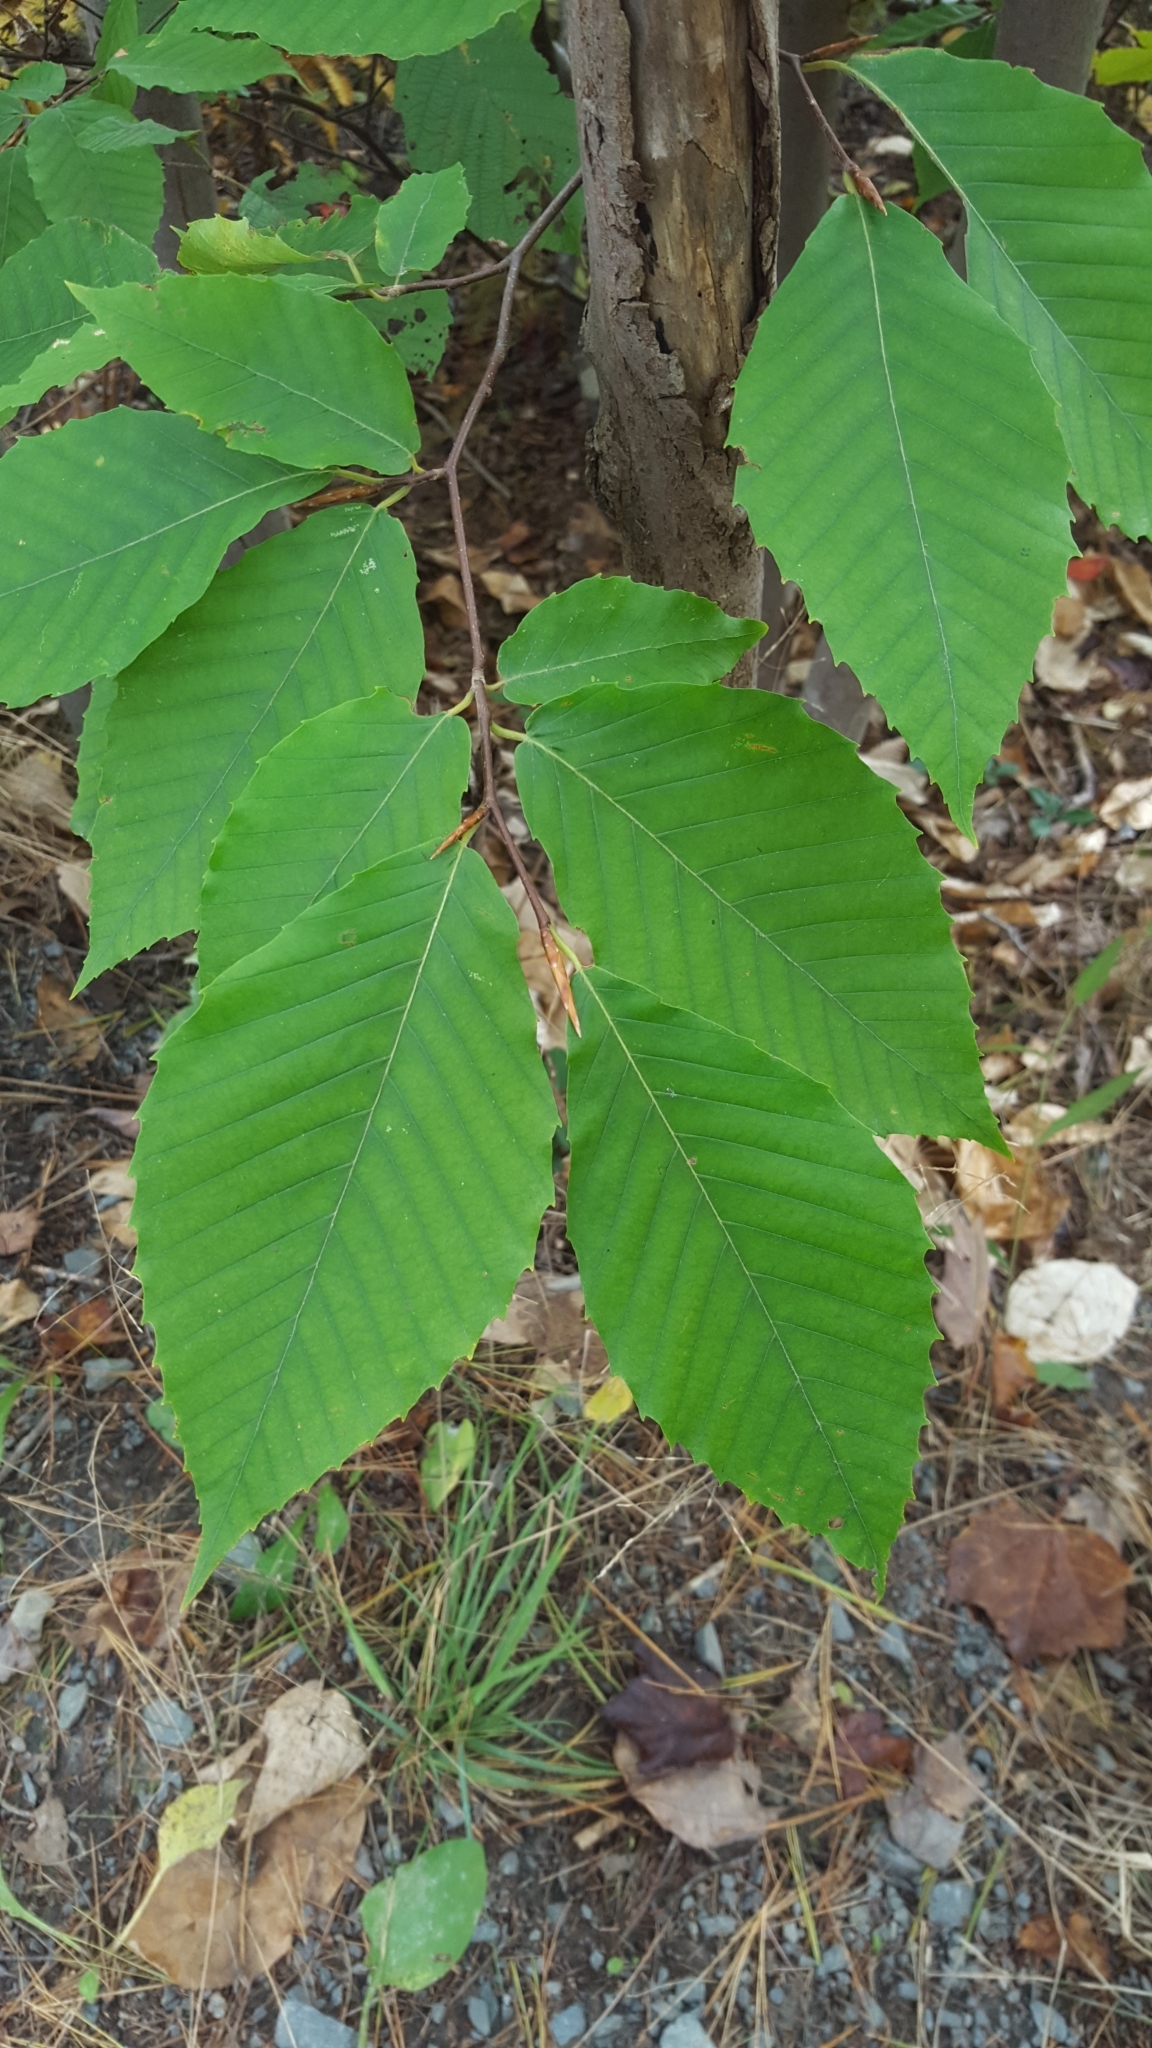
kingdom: Plantae
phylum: Tracheophyta
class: Magnoliopsida
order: Fagales
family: Fagaceae
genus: Fagus
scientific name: Fagus grandifolia
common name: American beech
